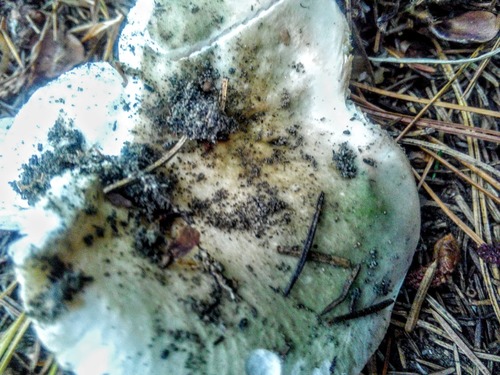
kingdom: Fungi
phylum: Basidiomycota
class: Agaricomycetes
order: Russulales
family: Russulaceae
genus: Russula
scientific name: Russula
